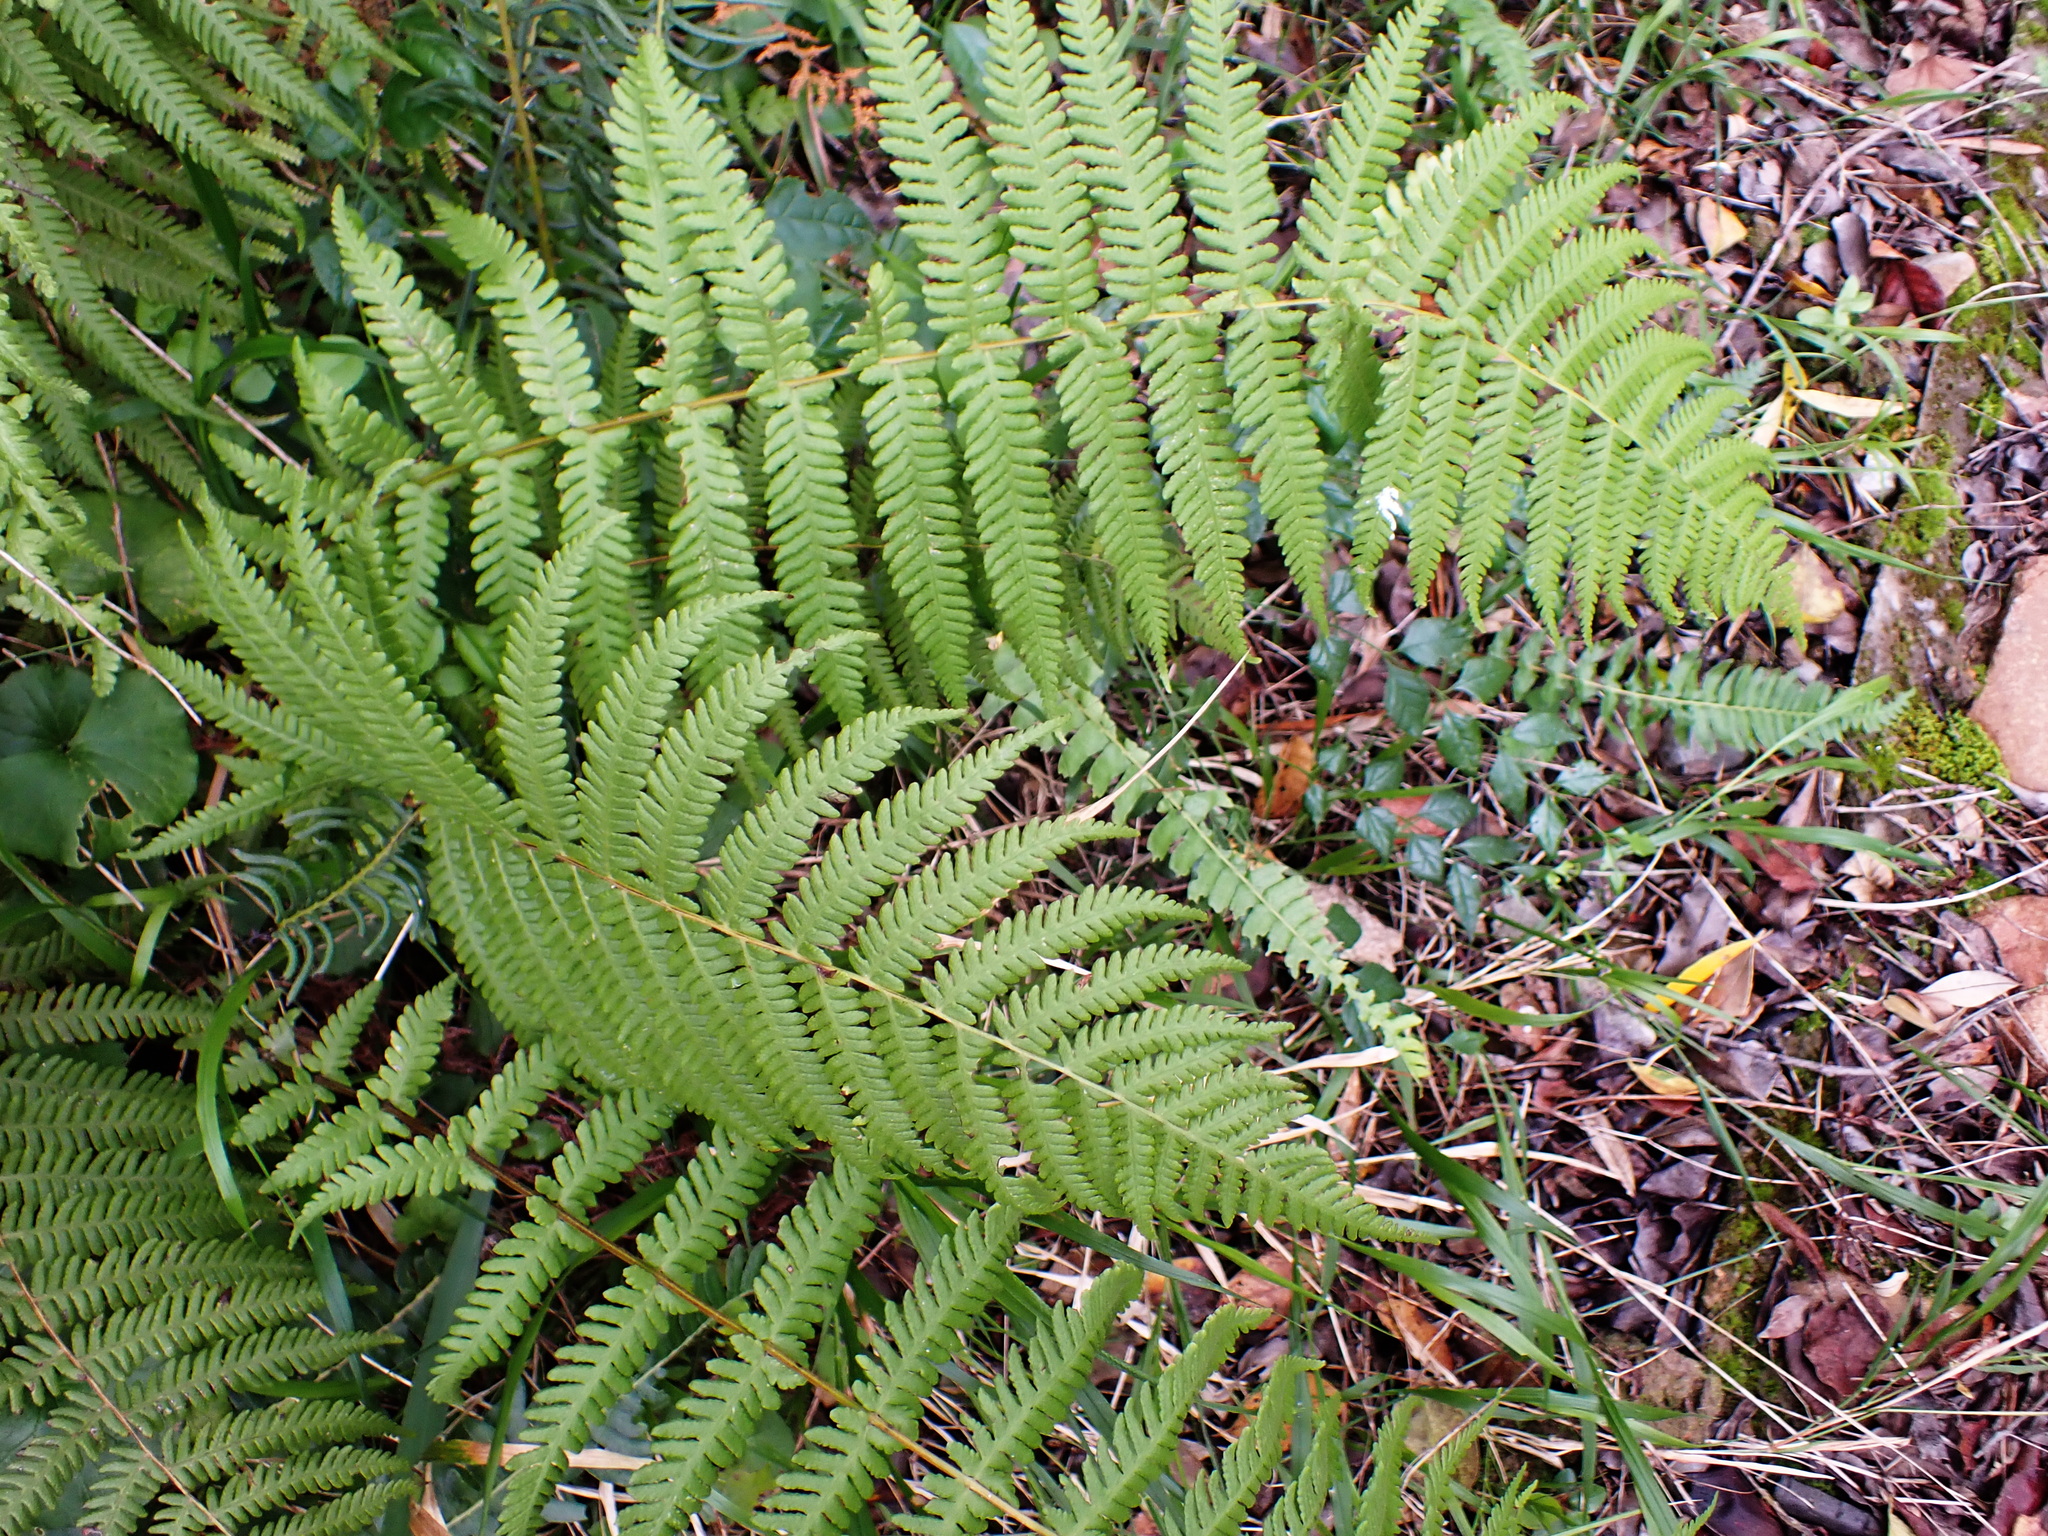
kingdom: Plantae
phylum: Tracheophyta
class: Polypodiopsida
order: Polypodiales
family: Thelypteridaceae
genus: Amauropelta
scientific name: Amauropelta bergiana
